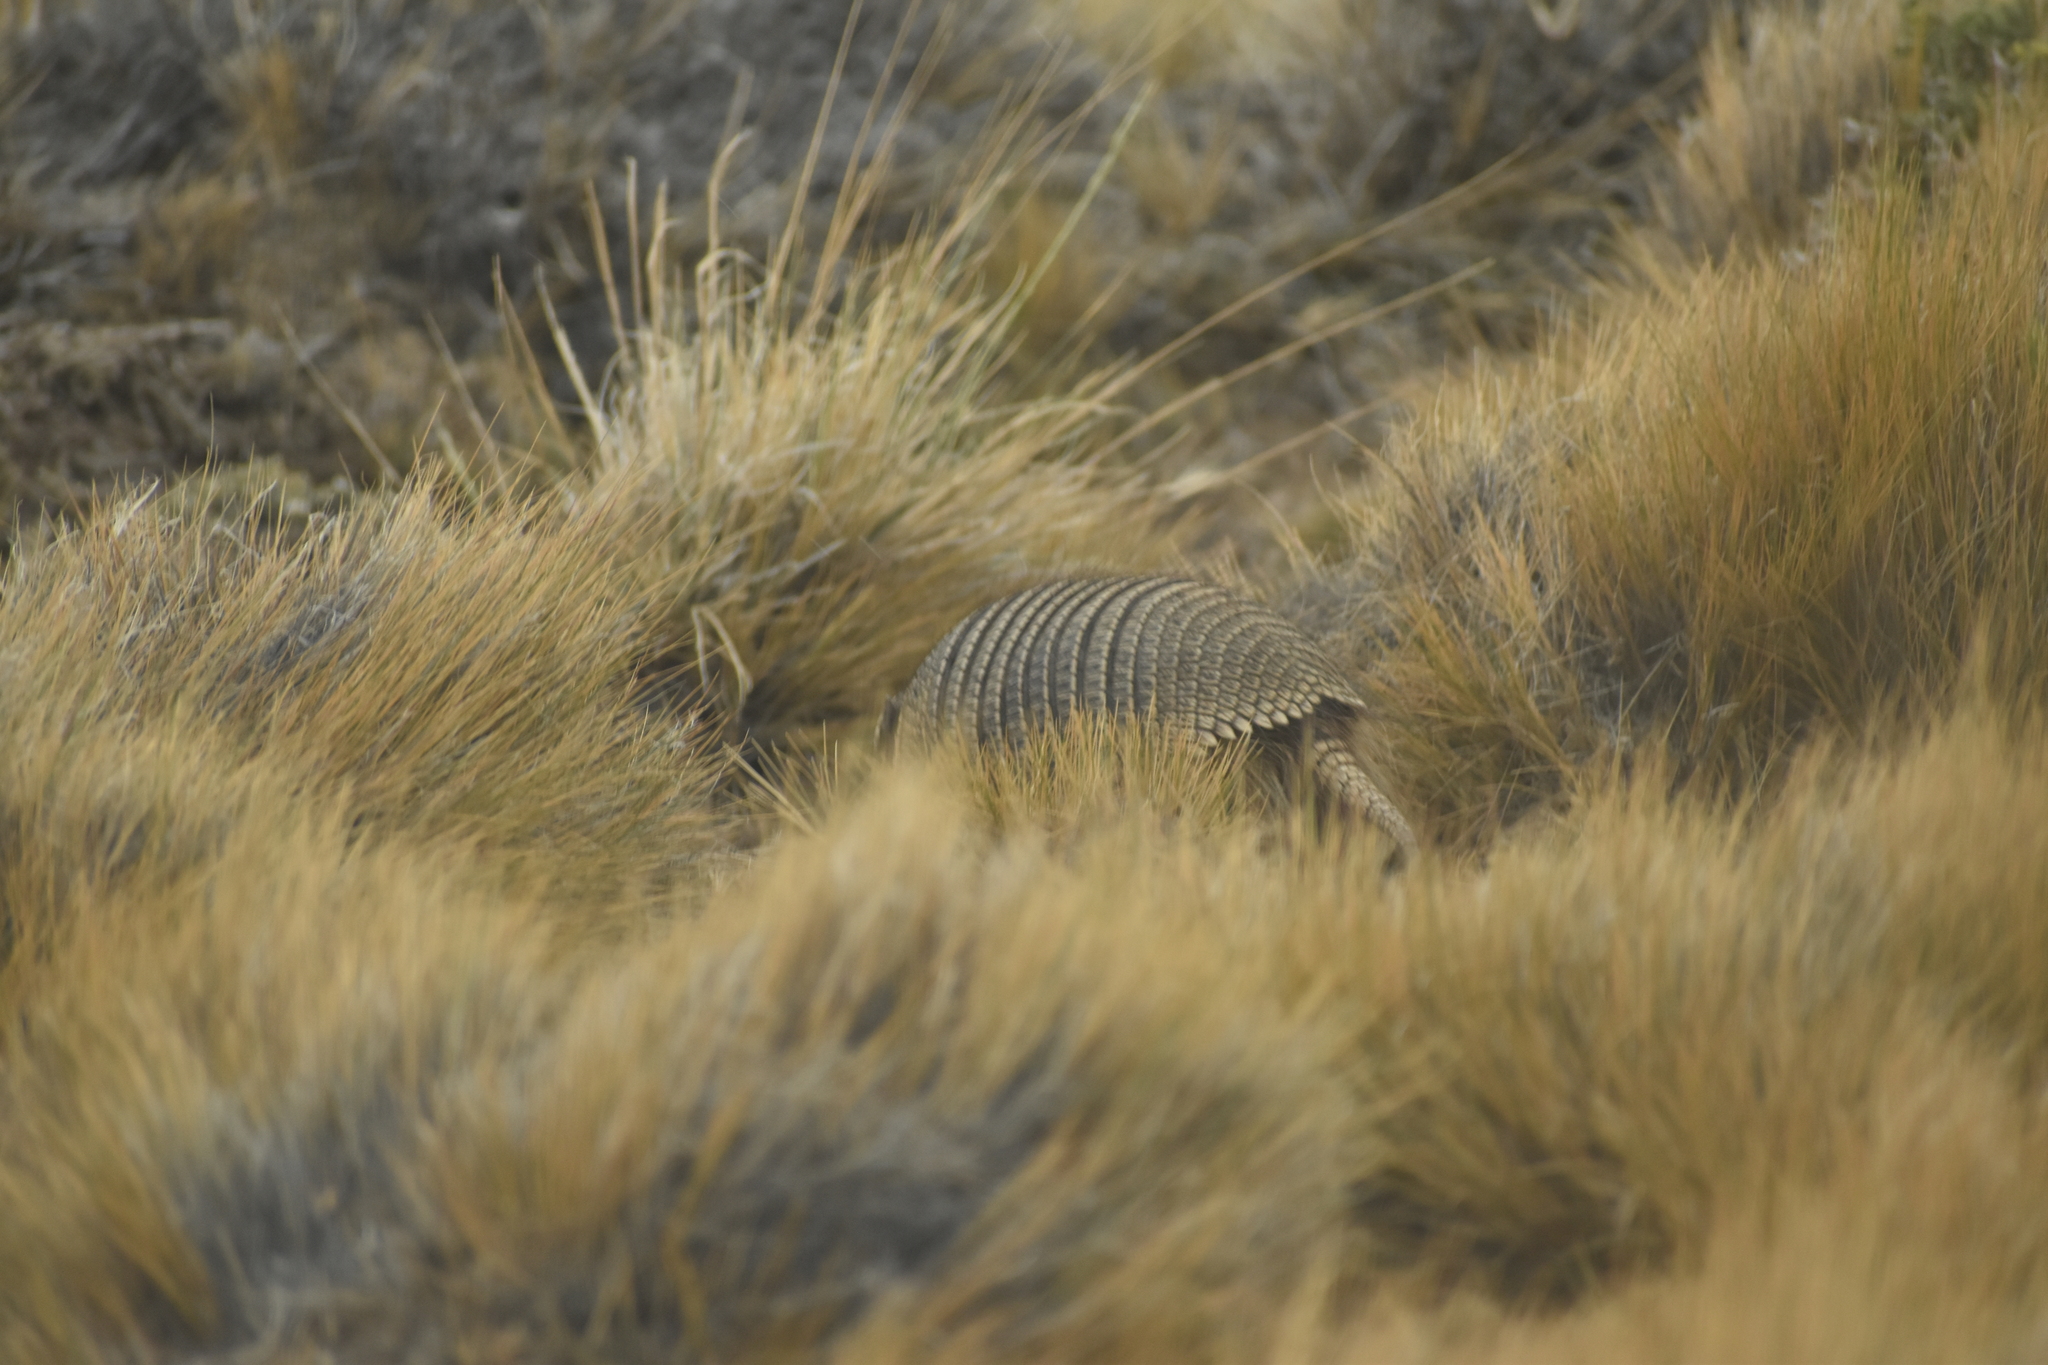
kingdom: Animalia
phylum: Chordata
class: Mammalia
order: Cingulata
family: Dasypodidae
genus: Zaedyus
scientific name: Zaedyus pichiy
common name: Pichi
